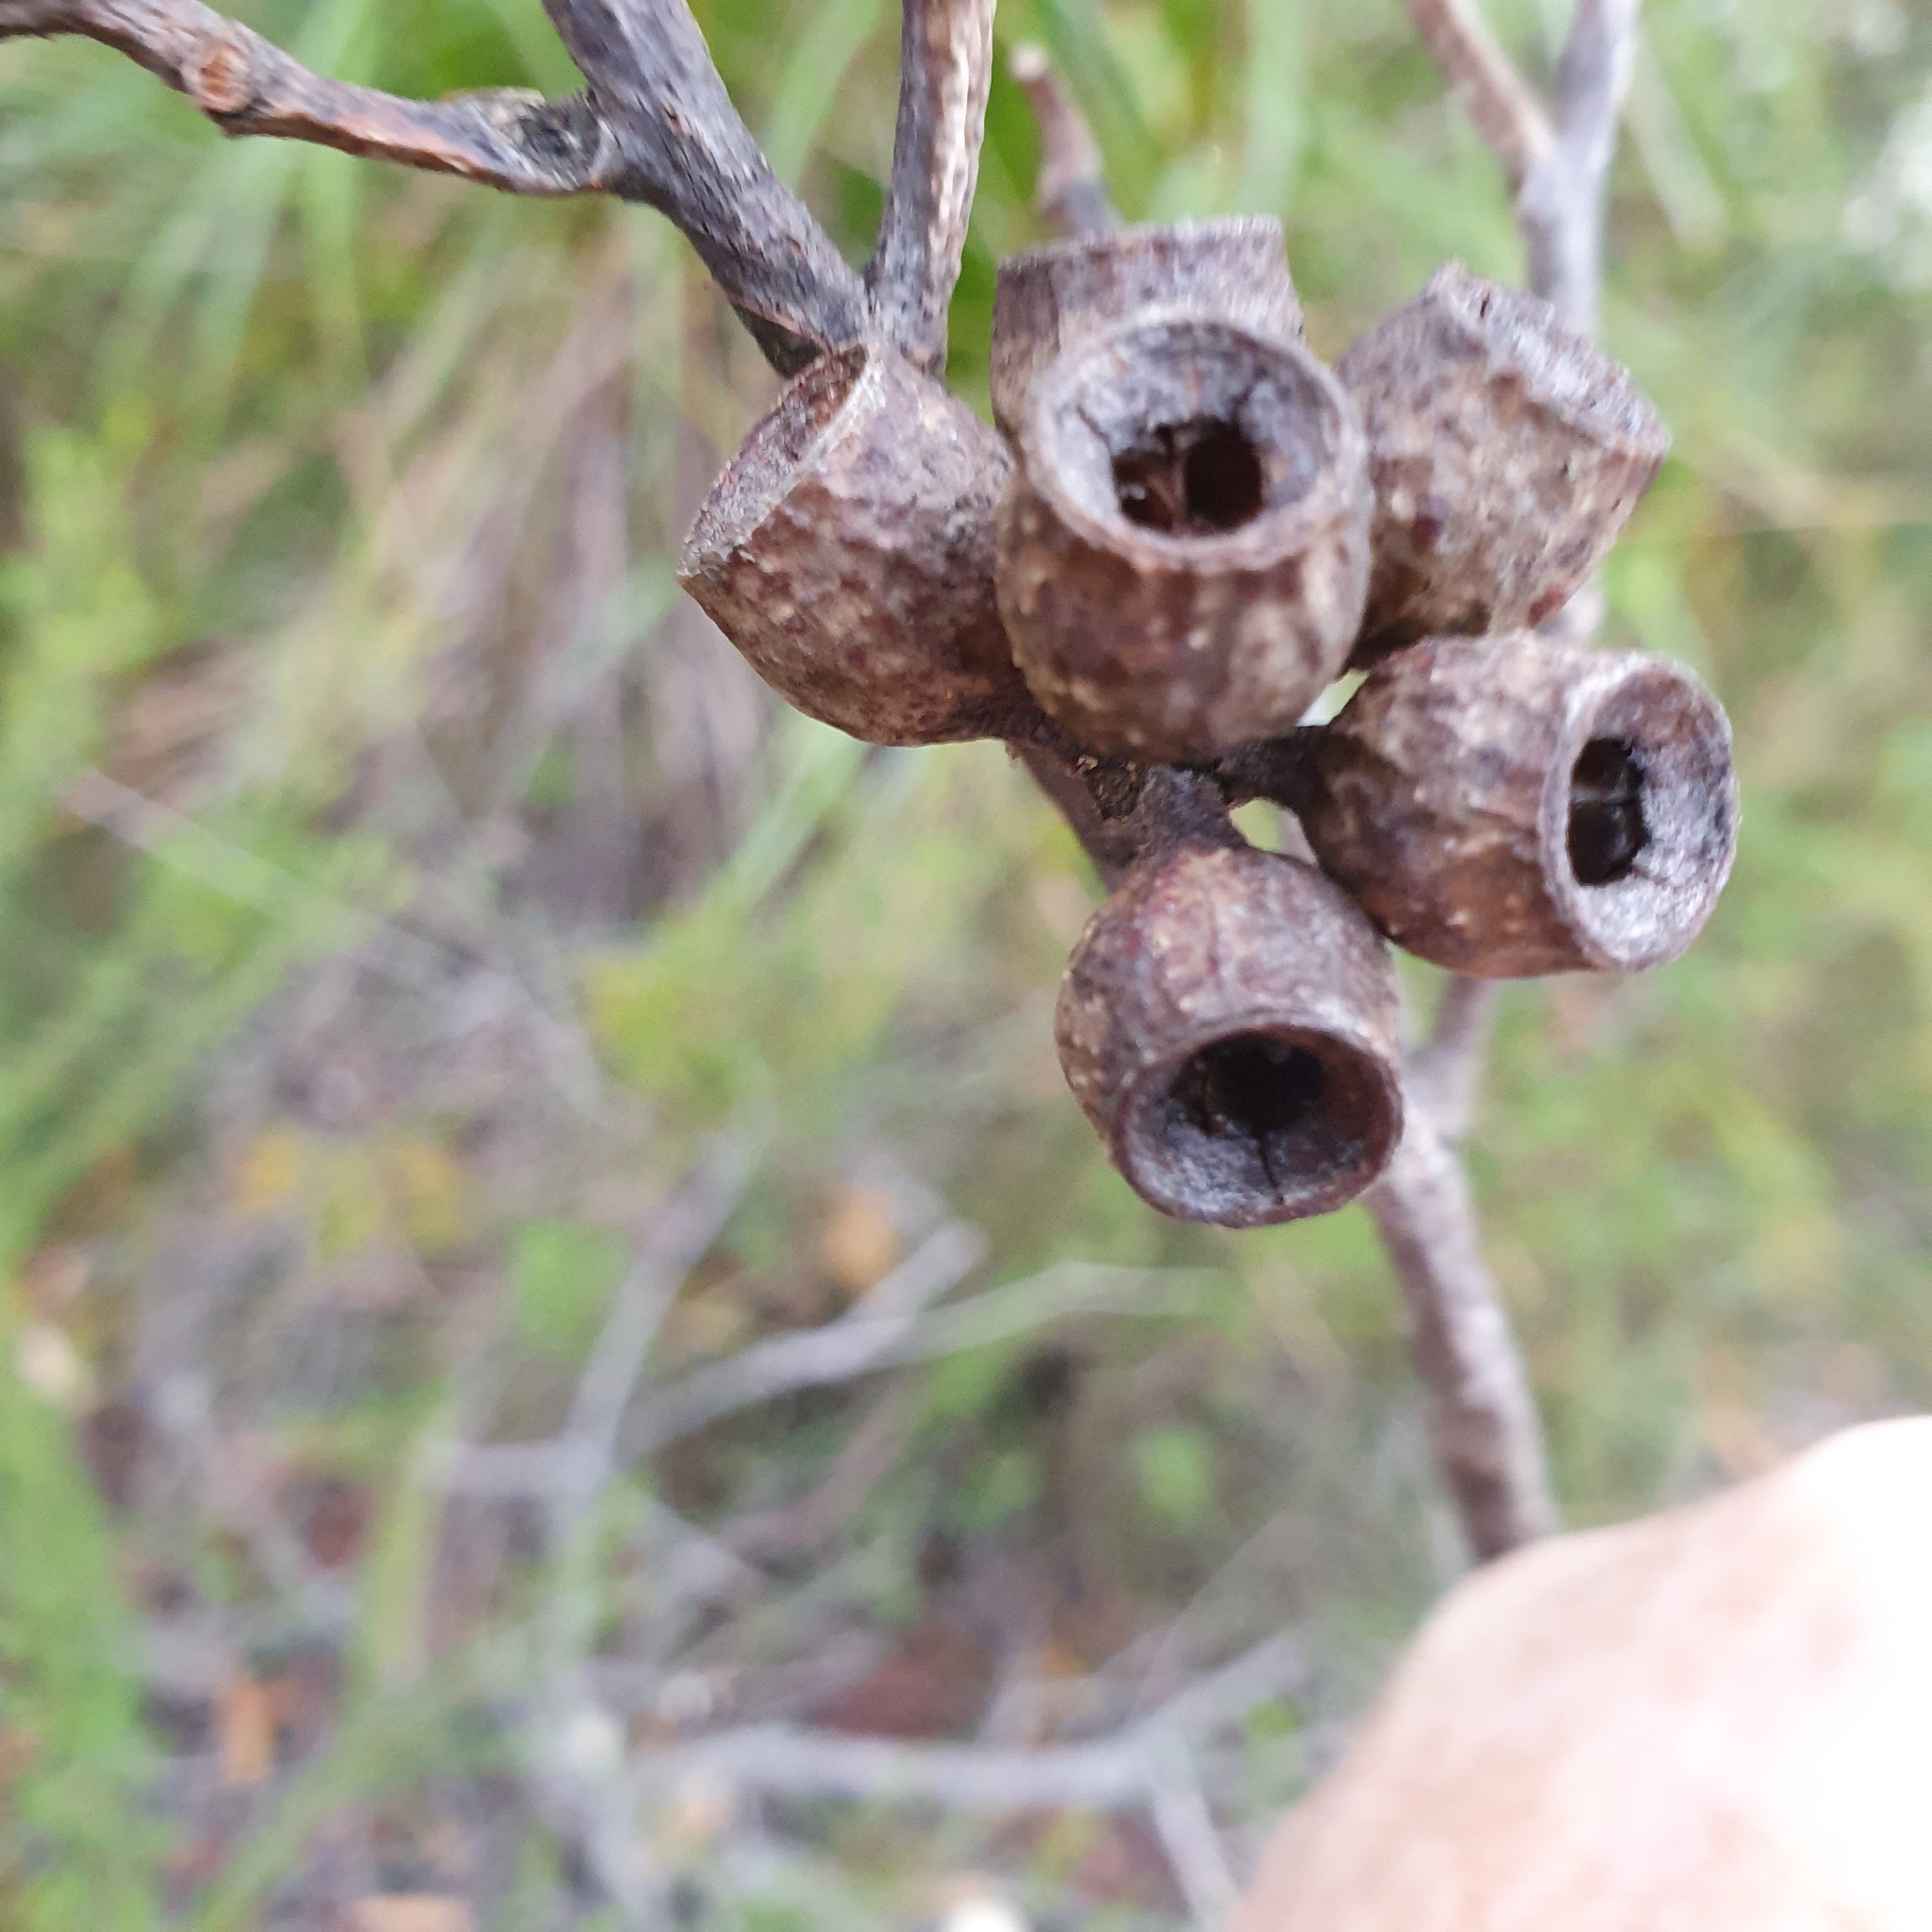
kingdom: Plantae
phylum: Tracheophyta
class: Magnoliopsida
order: Myrtales
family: Myrtaceae
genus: Eucalyptus
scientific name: Eucalyptus burgessiana
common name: Falconbridge mallee-ash
